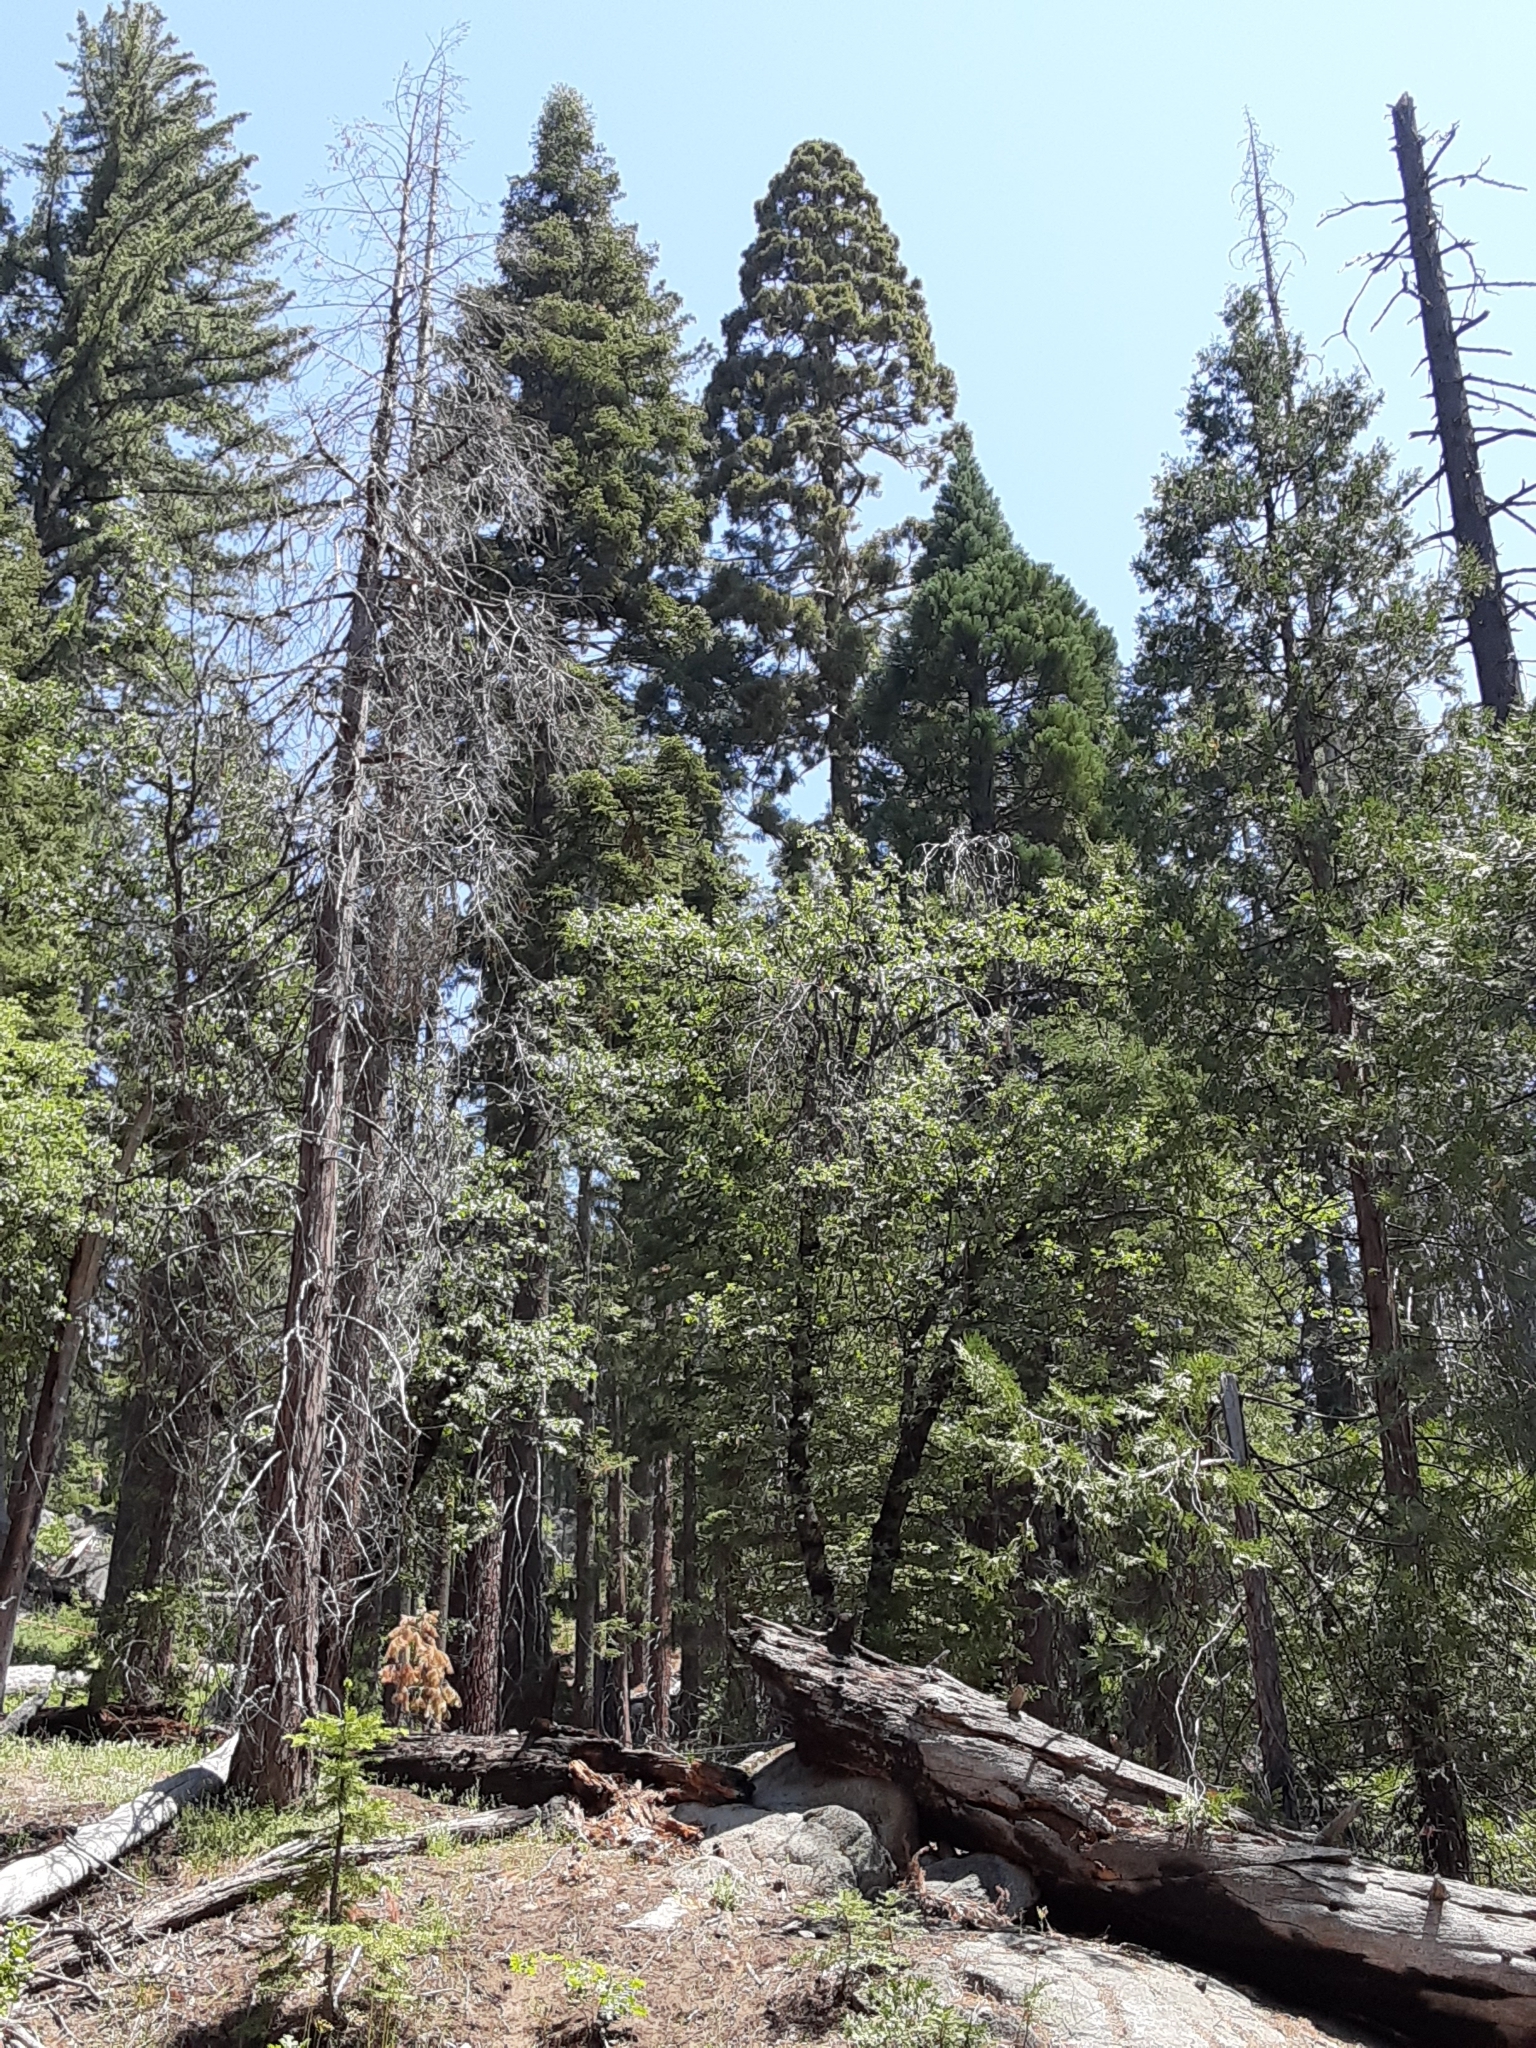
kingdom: Plantae
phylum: Tracheophyta
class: Pinopsida
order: Pinales
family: Cupressaceae
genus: Sequoiadendron
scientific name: Sequoiadendron giganteum
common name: Wellingtonia
